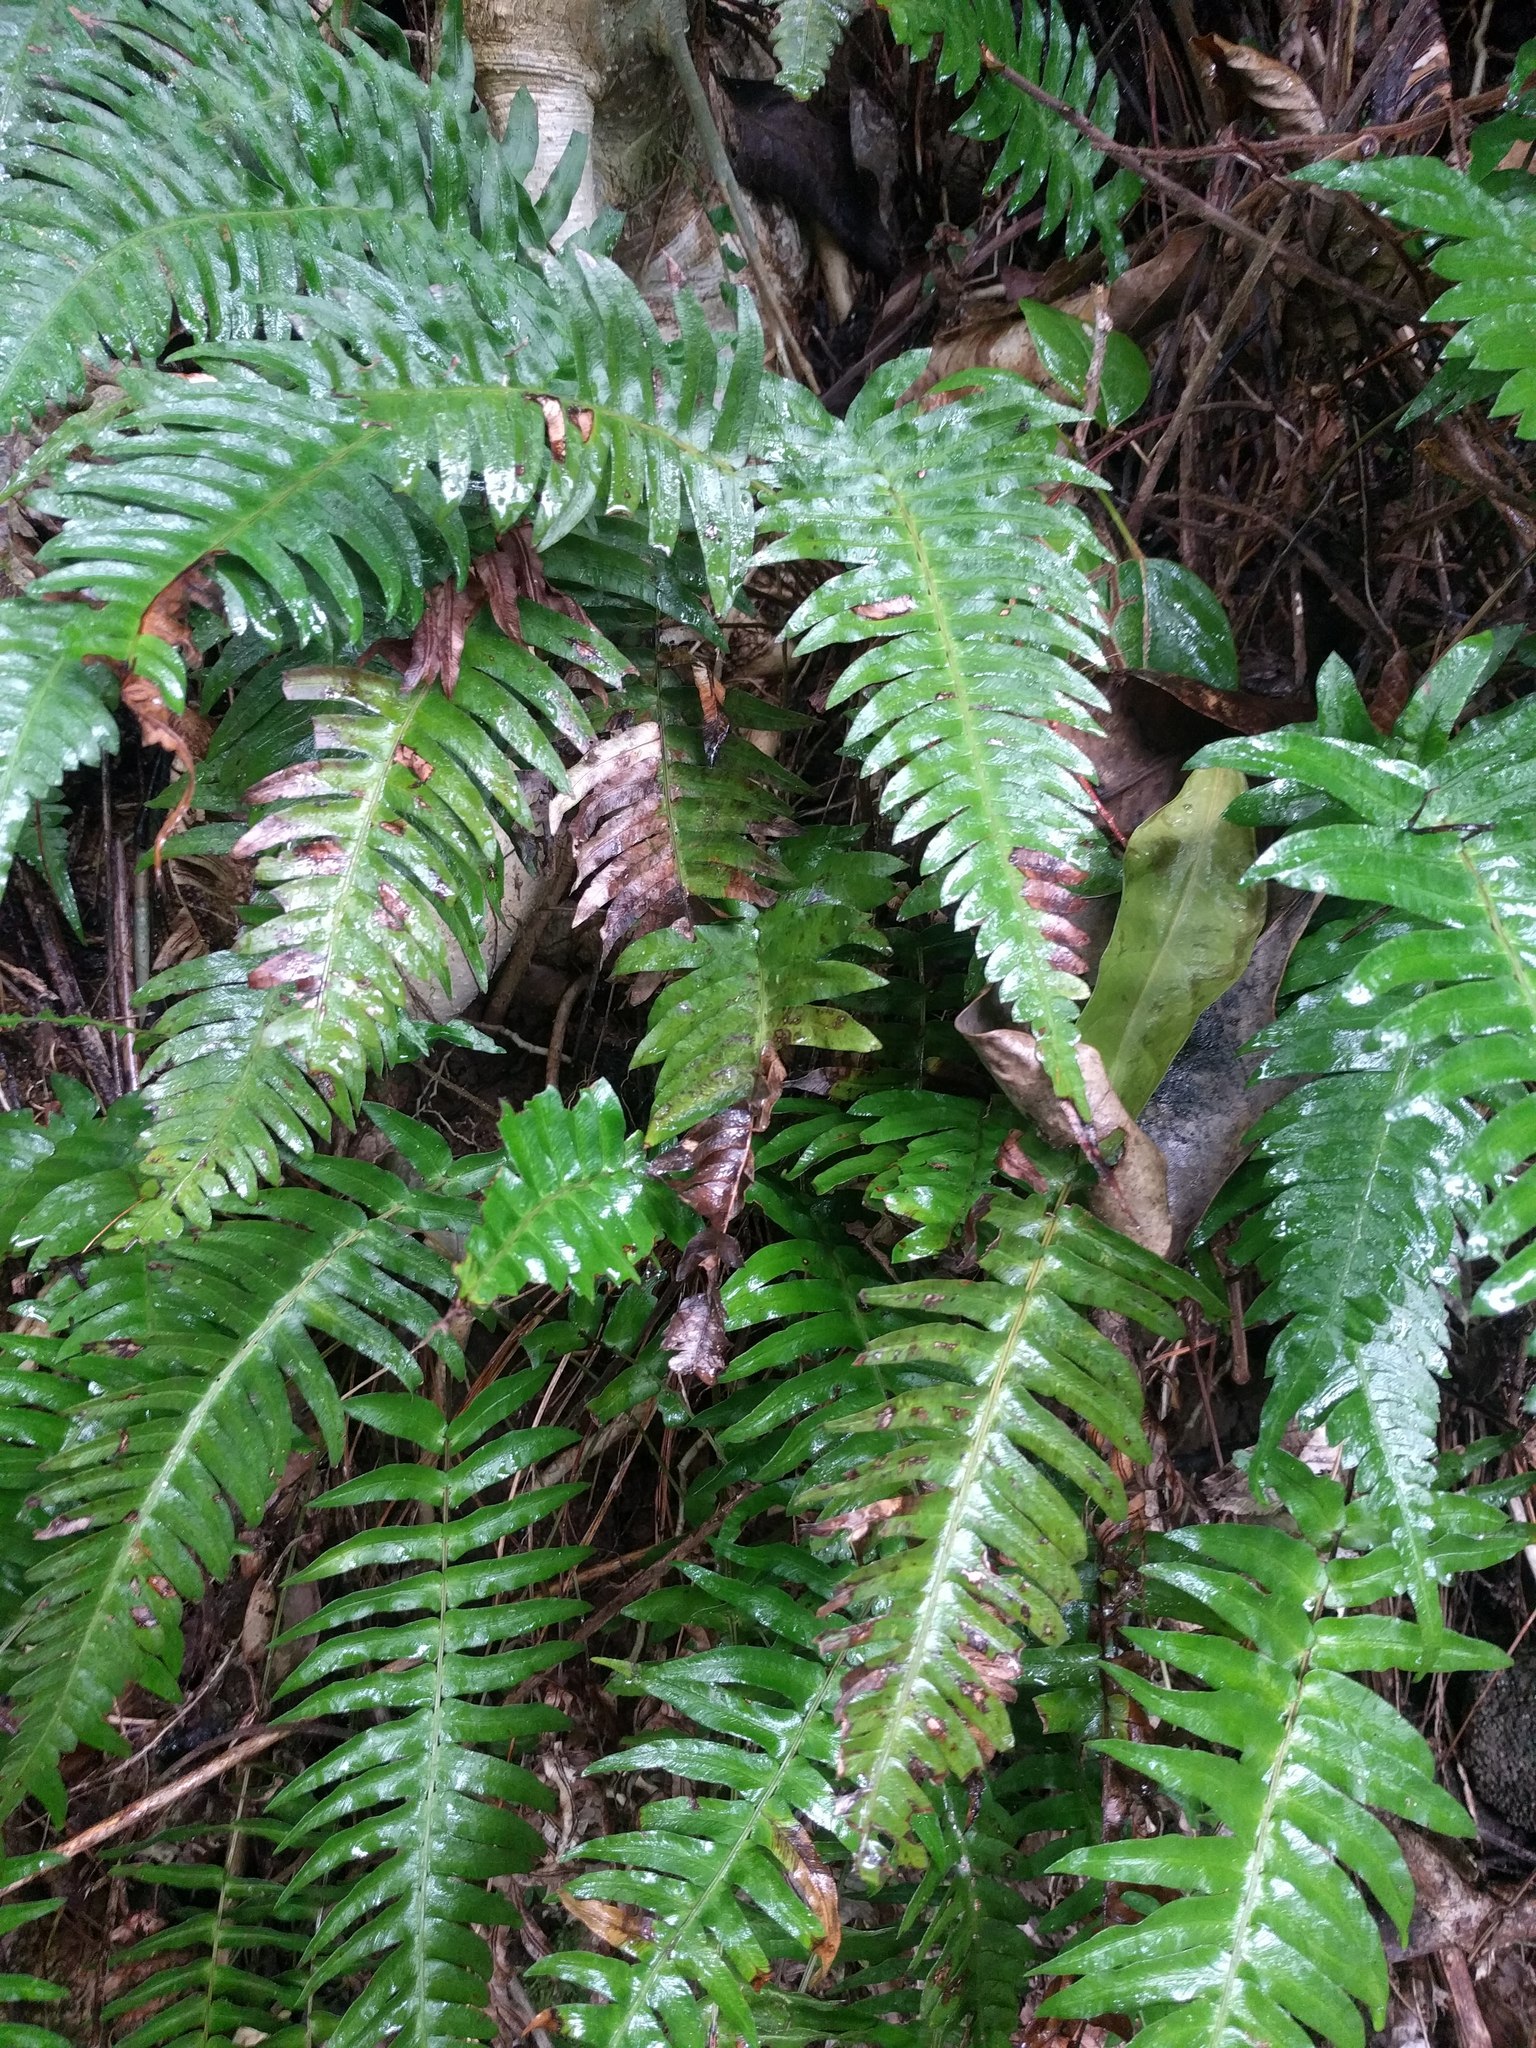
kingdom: Plantae
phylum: Tracheophyta
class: Polypodiopsida
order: Polypodiales
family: Blechnaceae
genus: Blechnum
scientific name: Blechnum appendiculatum
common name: Palm fern
